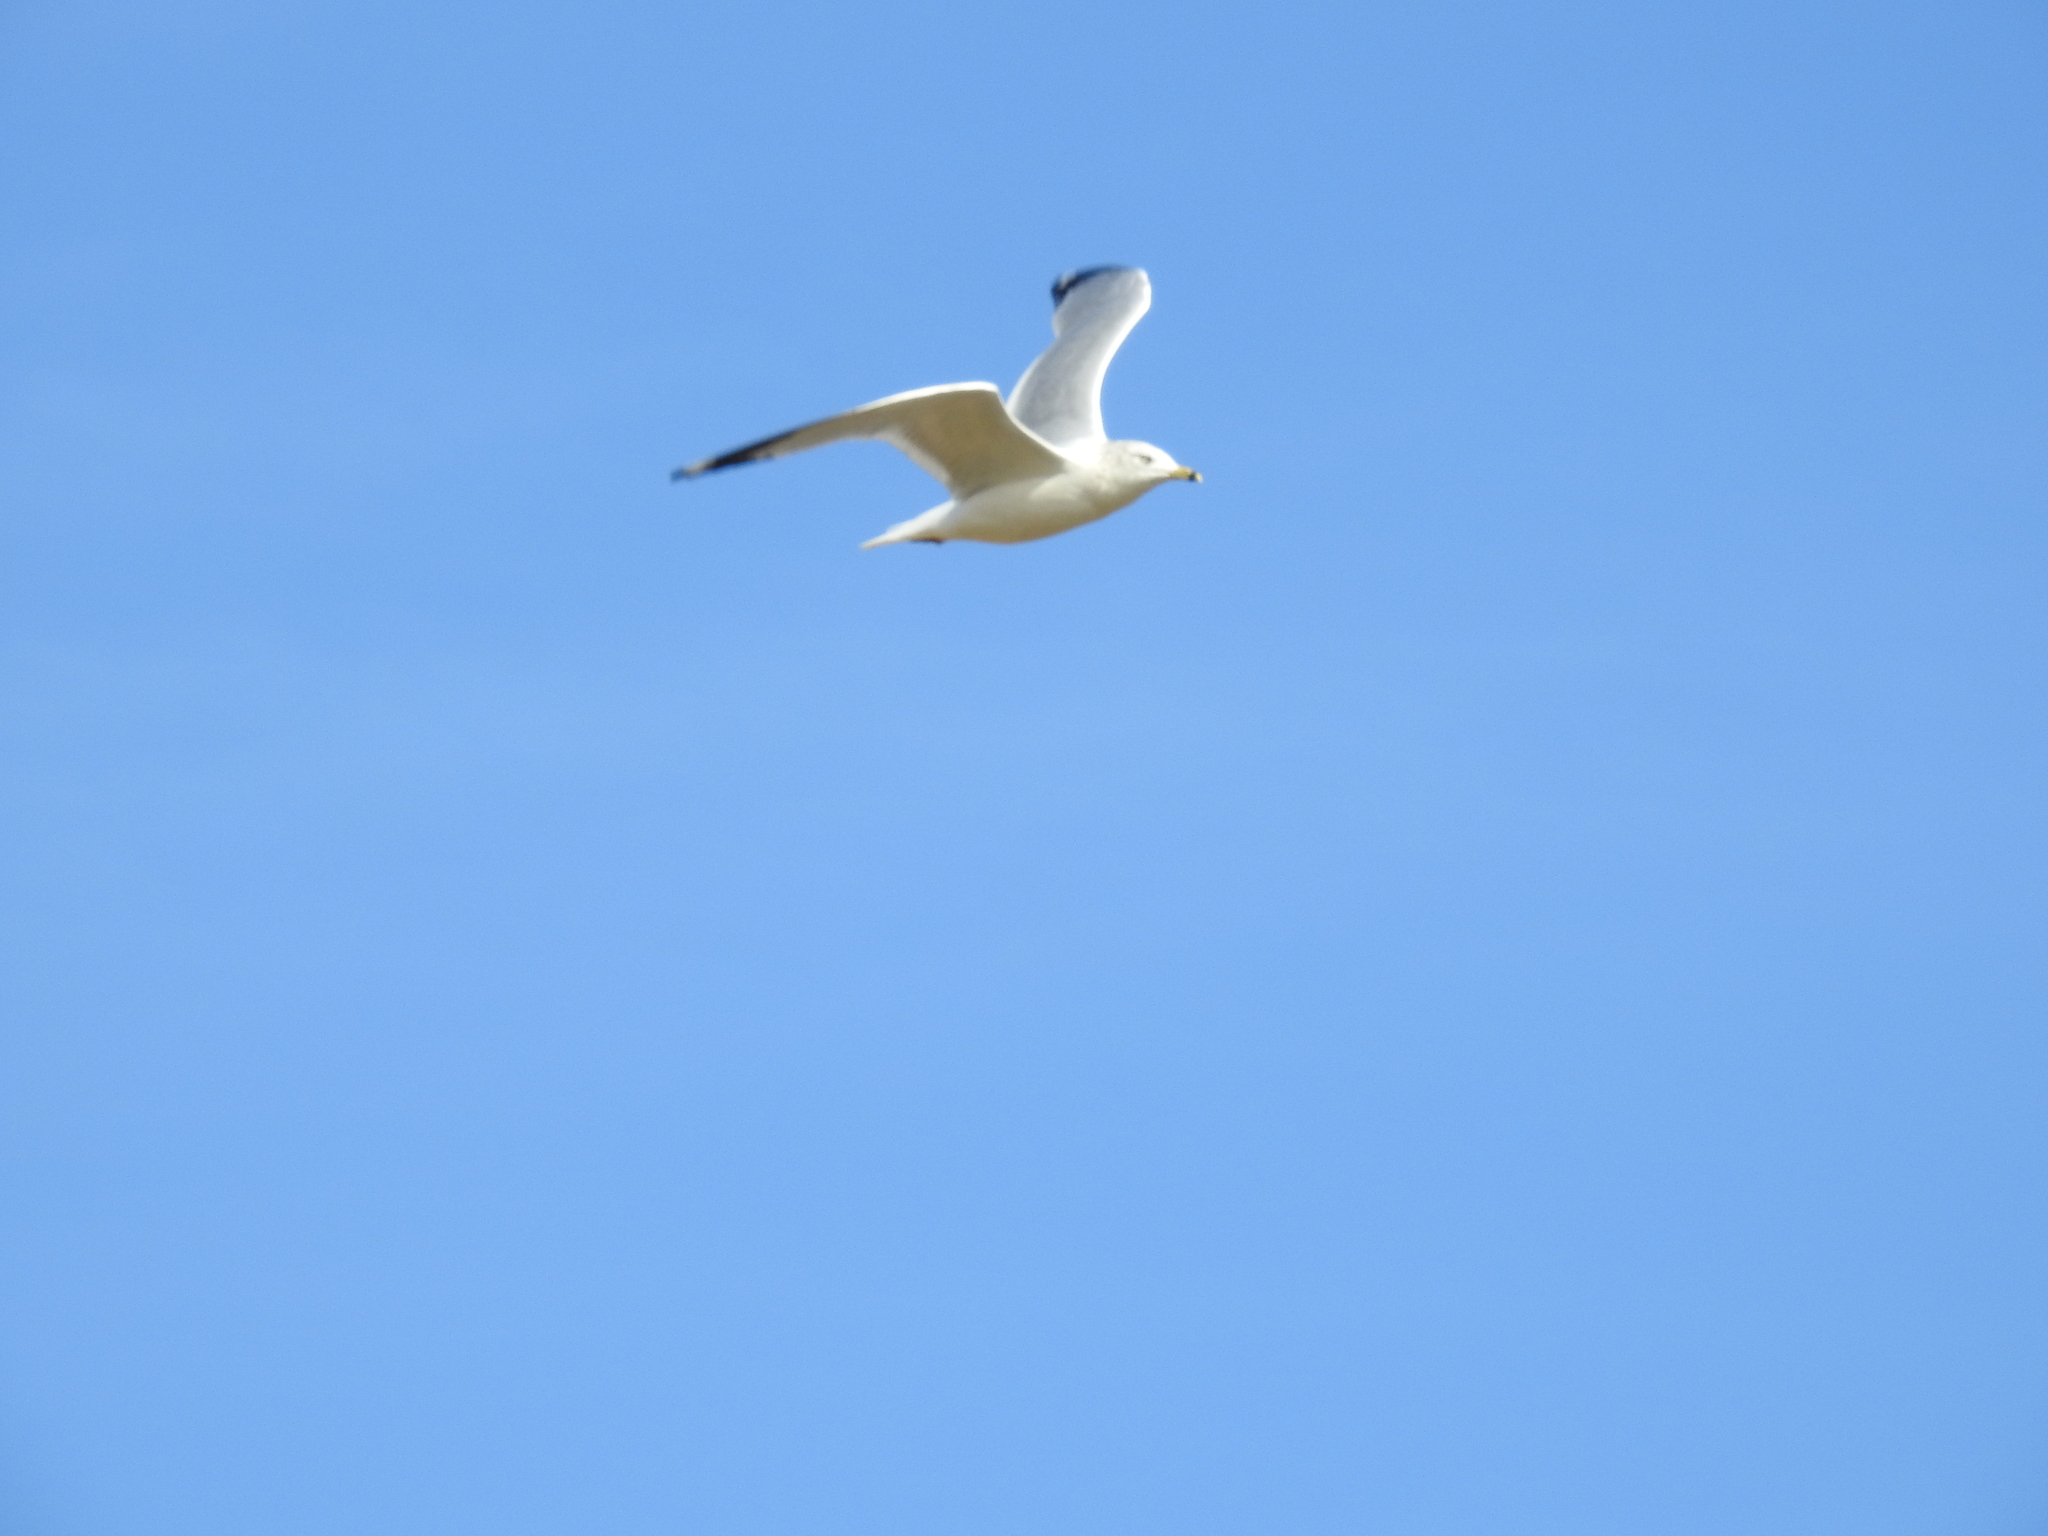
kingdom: Animalia
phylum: Chordata
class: Aves
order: Charadriiformes
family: Laridae
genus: Larus
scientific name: Larus delawarensis
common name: Ring-billed gull
